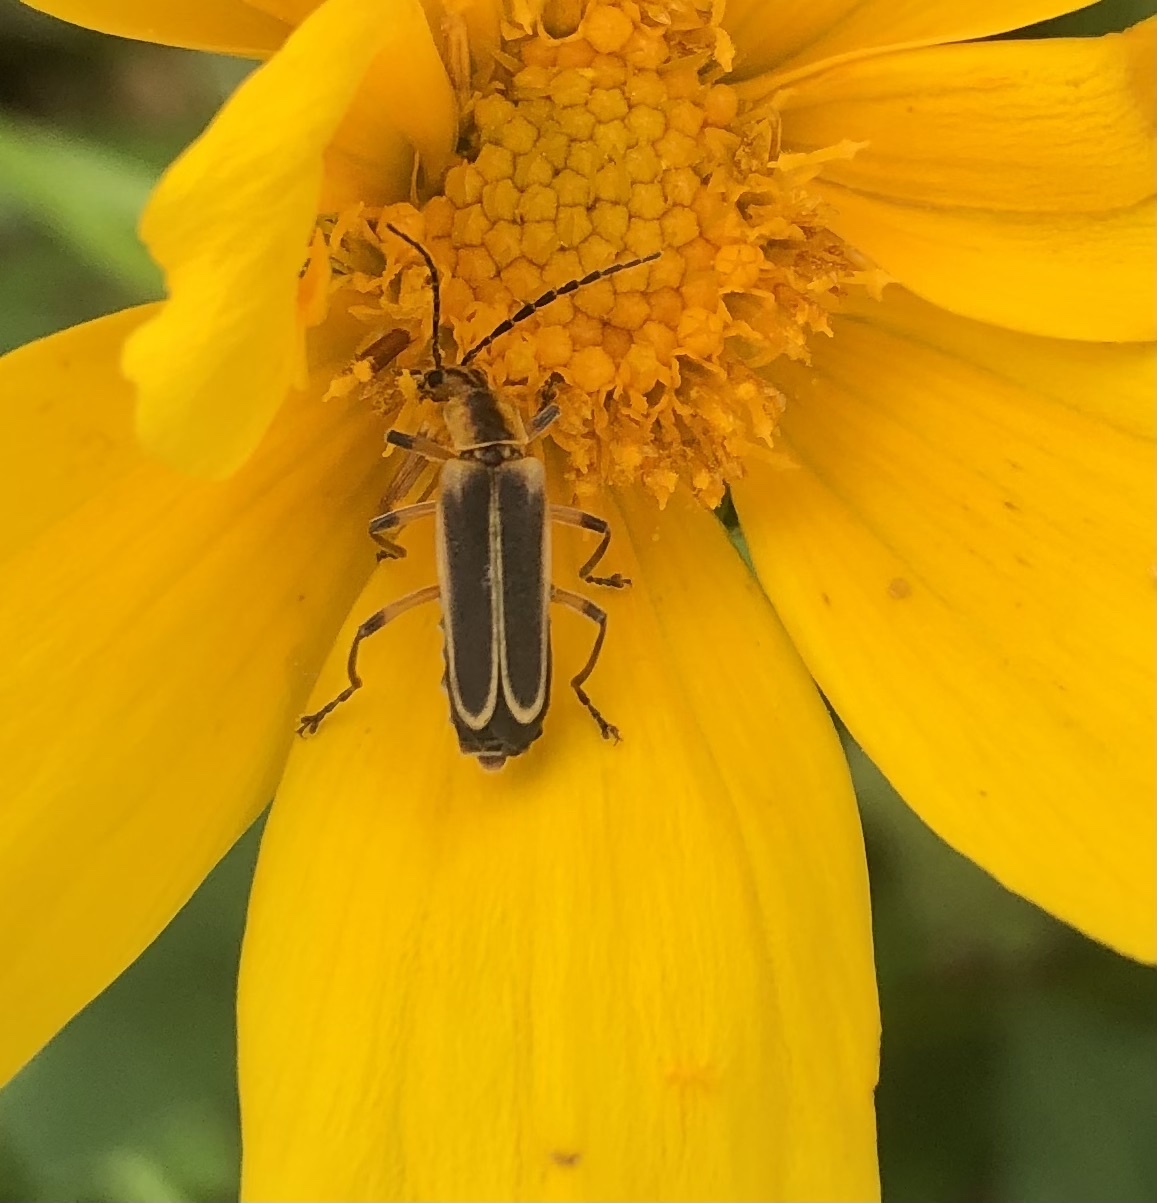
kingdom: Animalia
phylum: Arthropoda
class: Insecta
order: Coleoptera
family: Cantharidae
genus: Chauliognathus
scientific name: Chauliognathus marginatus
